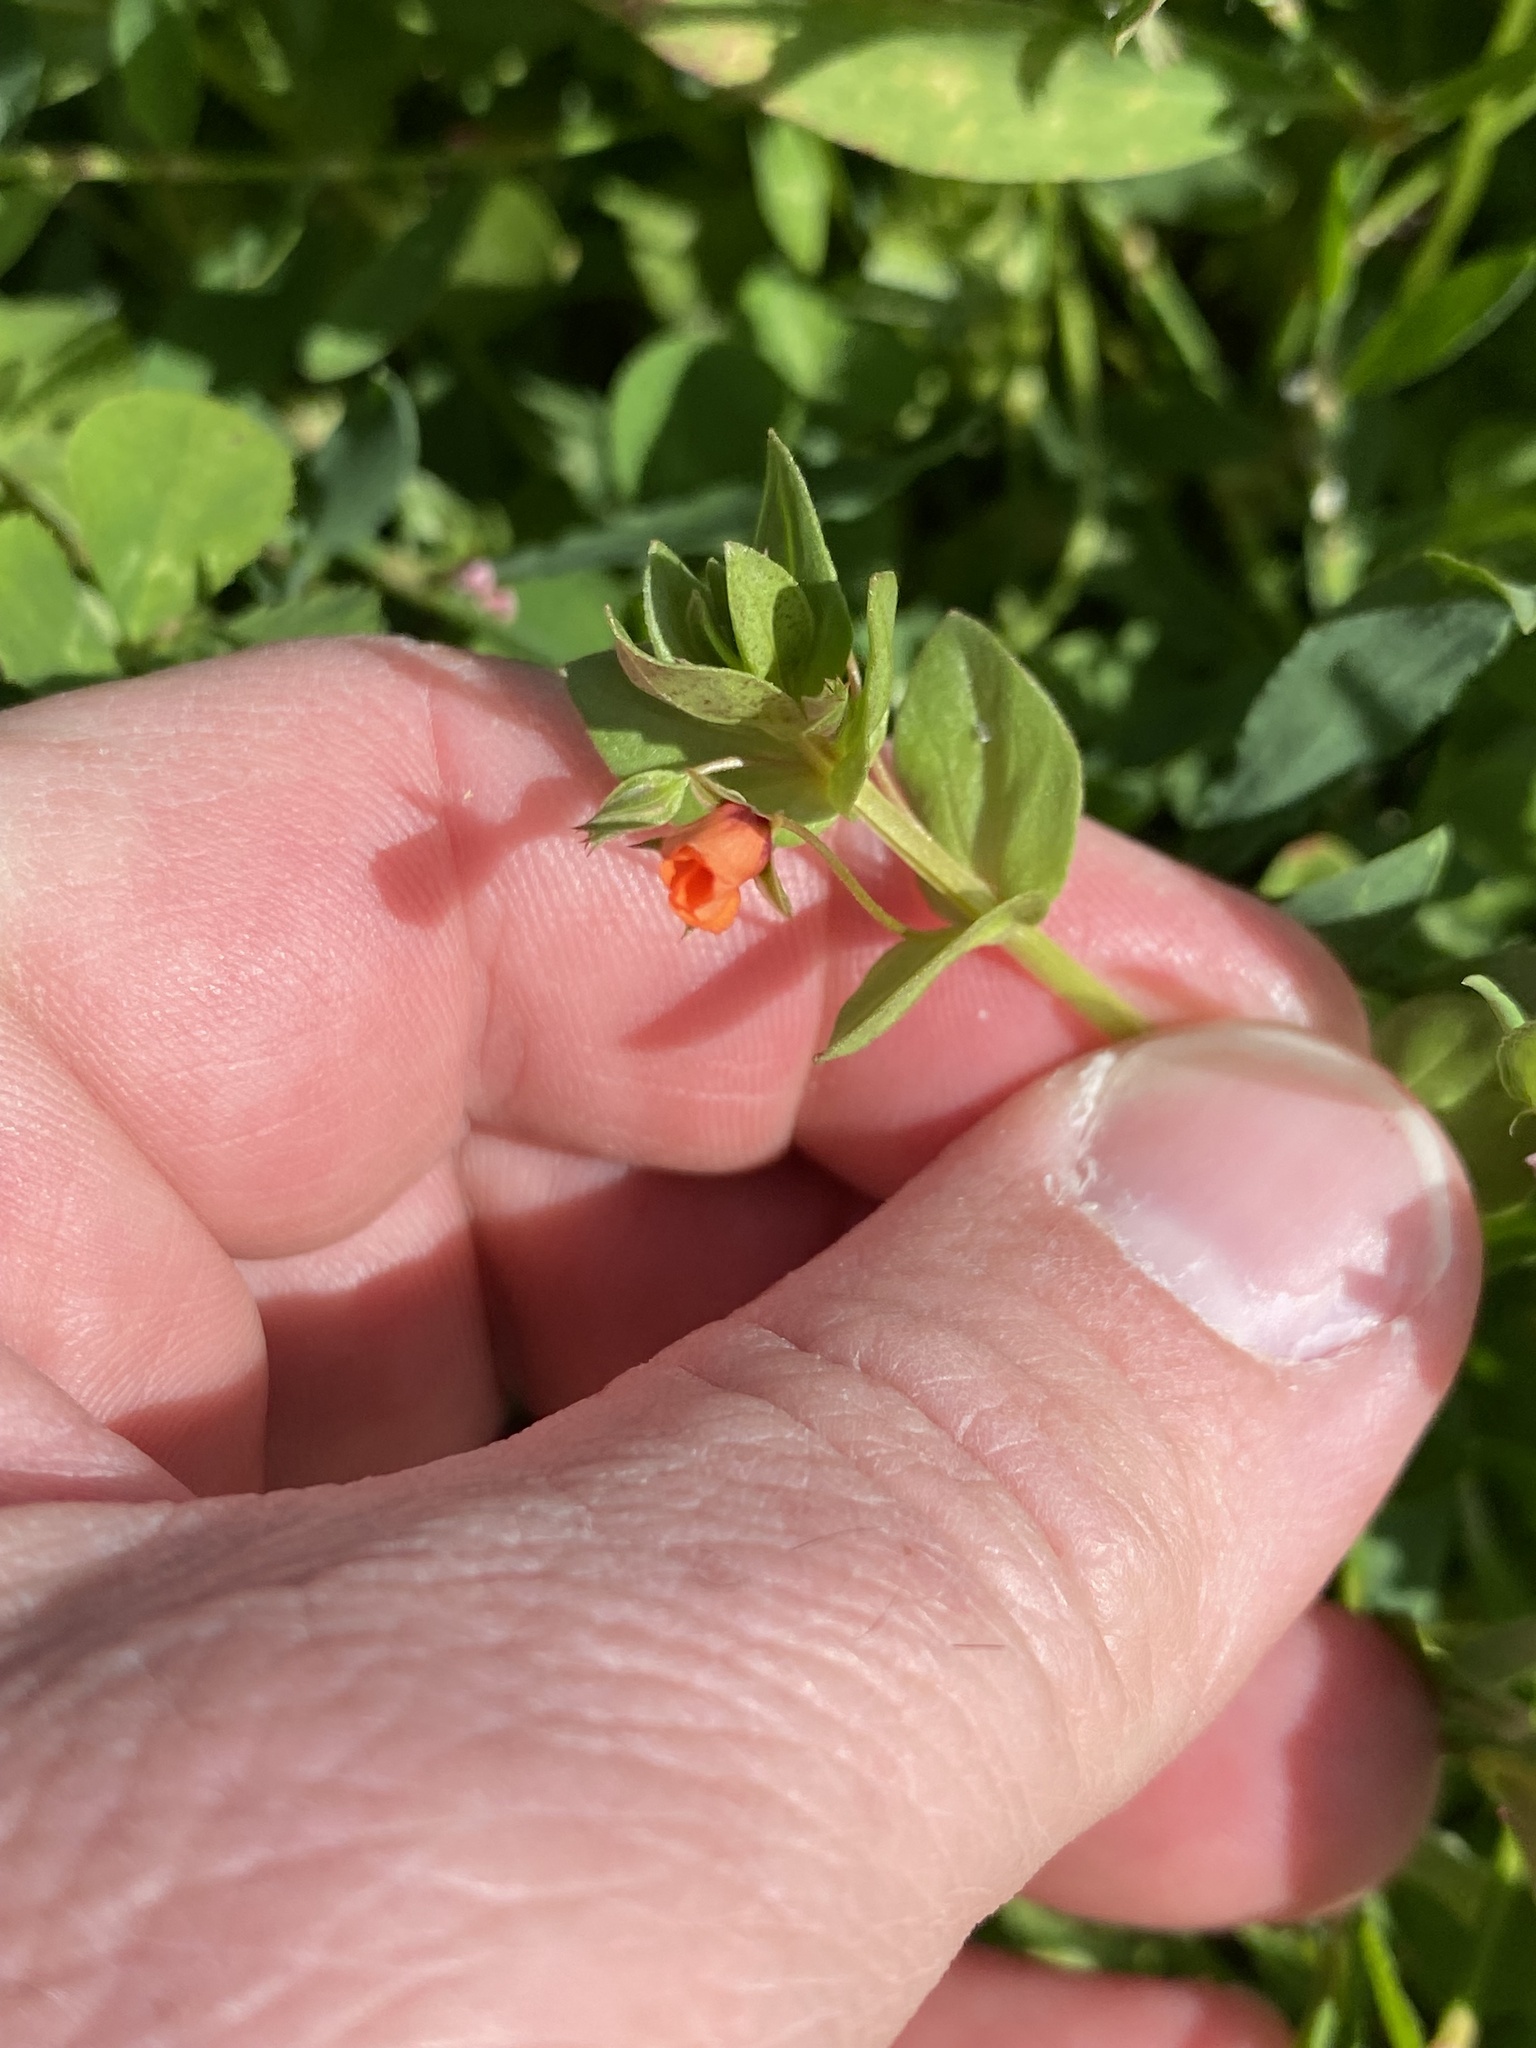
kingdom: Plantae
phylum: Tracheophyta
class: Magnoliopsida
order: Ericales
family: Primulaceae
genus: Lysimachia
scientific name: Lysimachia arvensis
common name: Scarlet pimpernel
